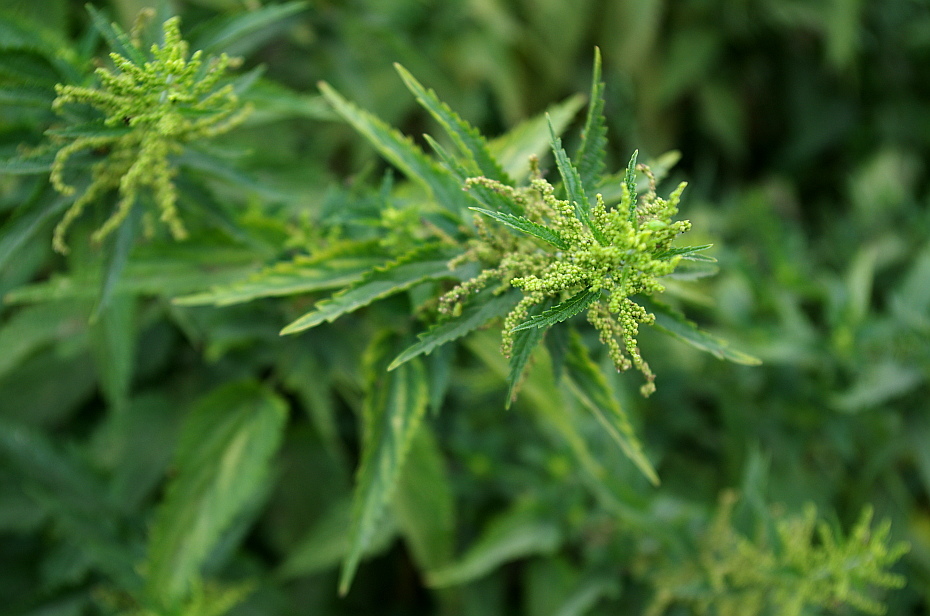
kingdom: Plantae
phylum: Tracheophyta
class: Magnoliopsida
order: Rosales
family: Urticaceae
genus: Urtica
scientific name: Urtica dioica
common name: Common nettle
